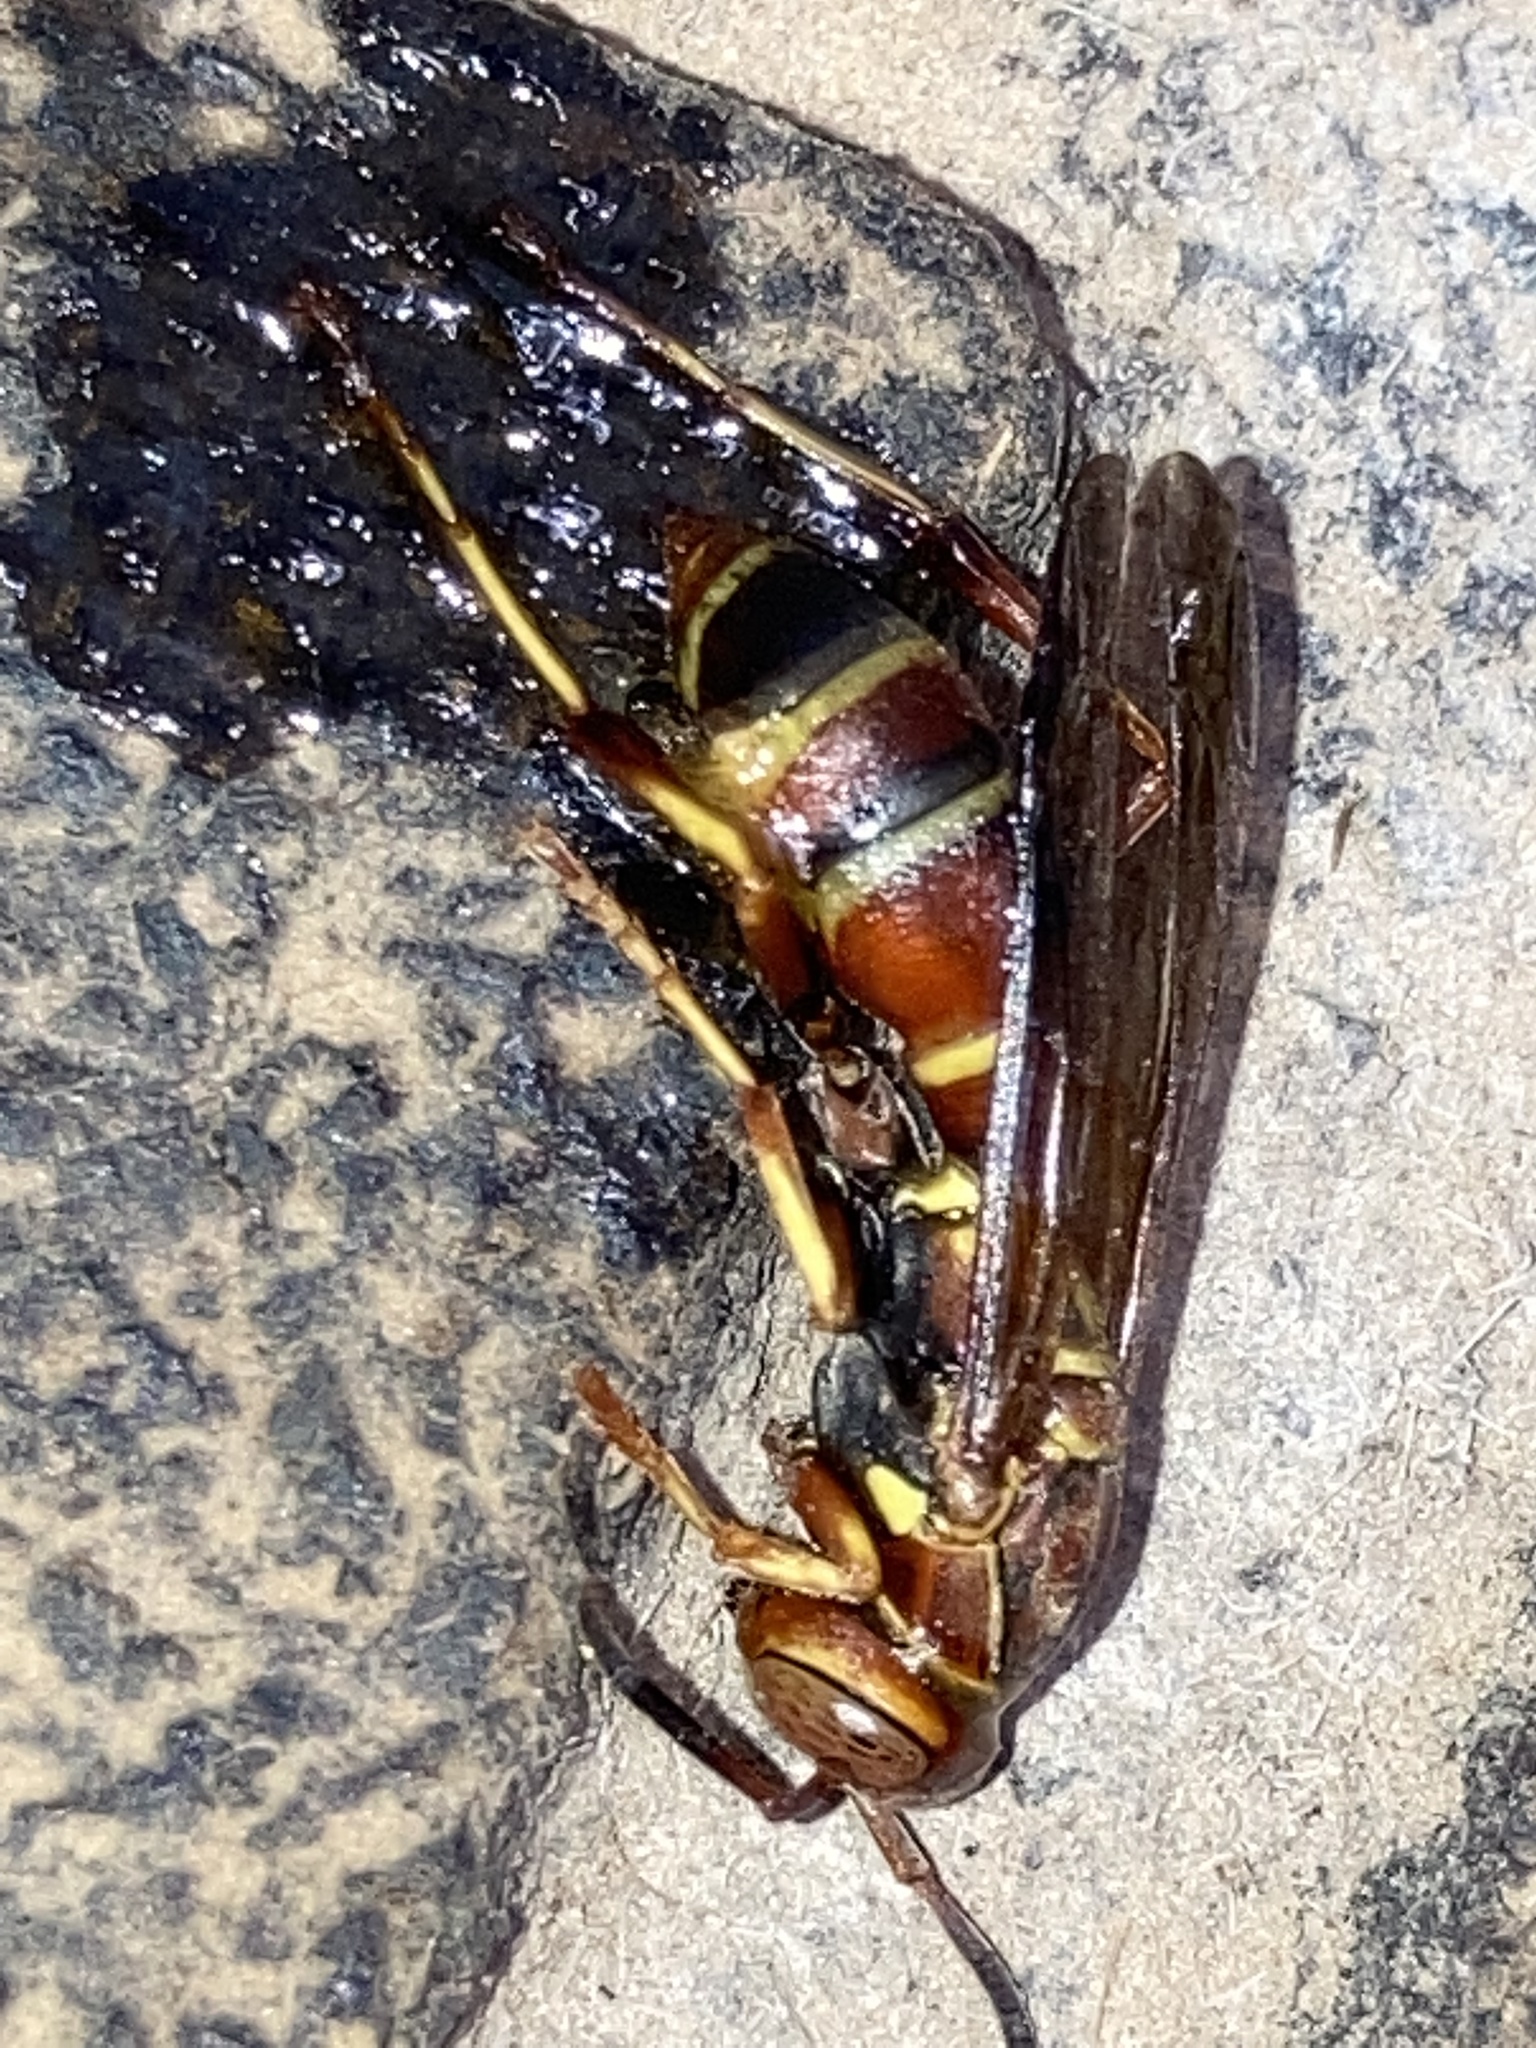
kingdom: Animalia
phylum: Arthropoda
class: Insecta
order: Hymenoptera
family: Eumenidae
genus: Polistes
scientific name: Polistes dorsalis
